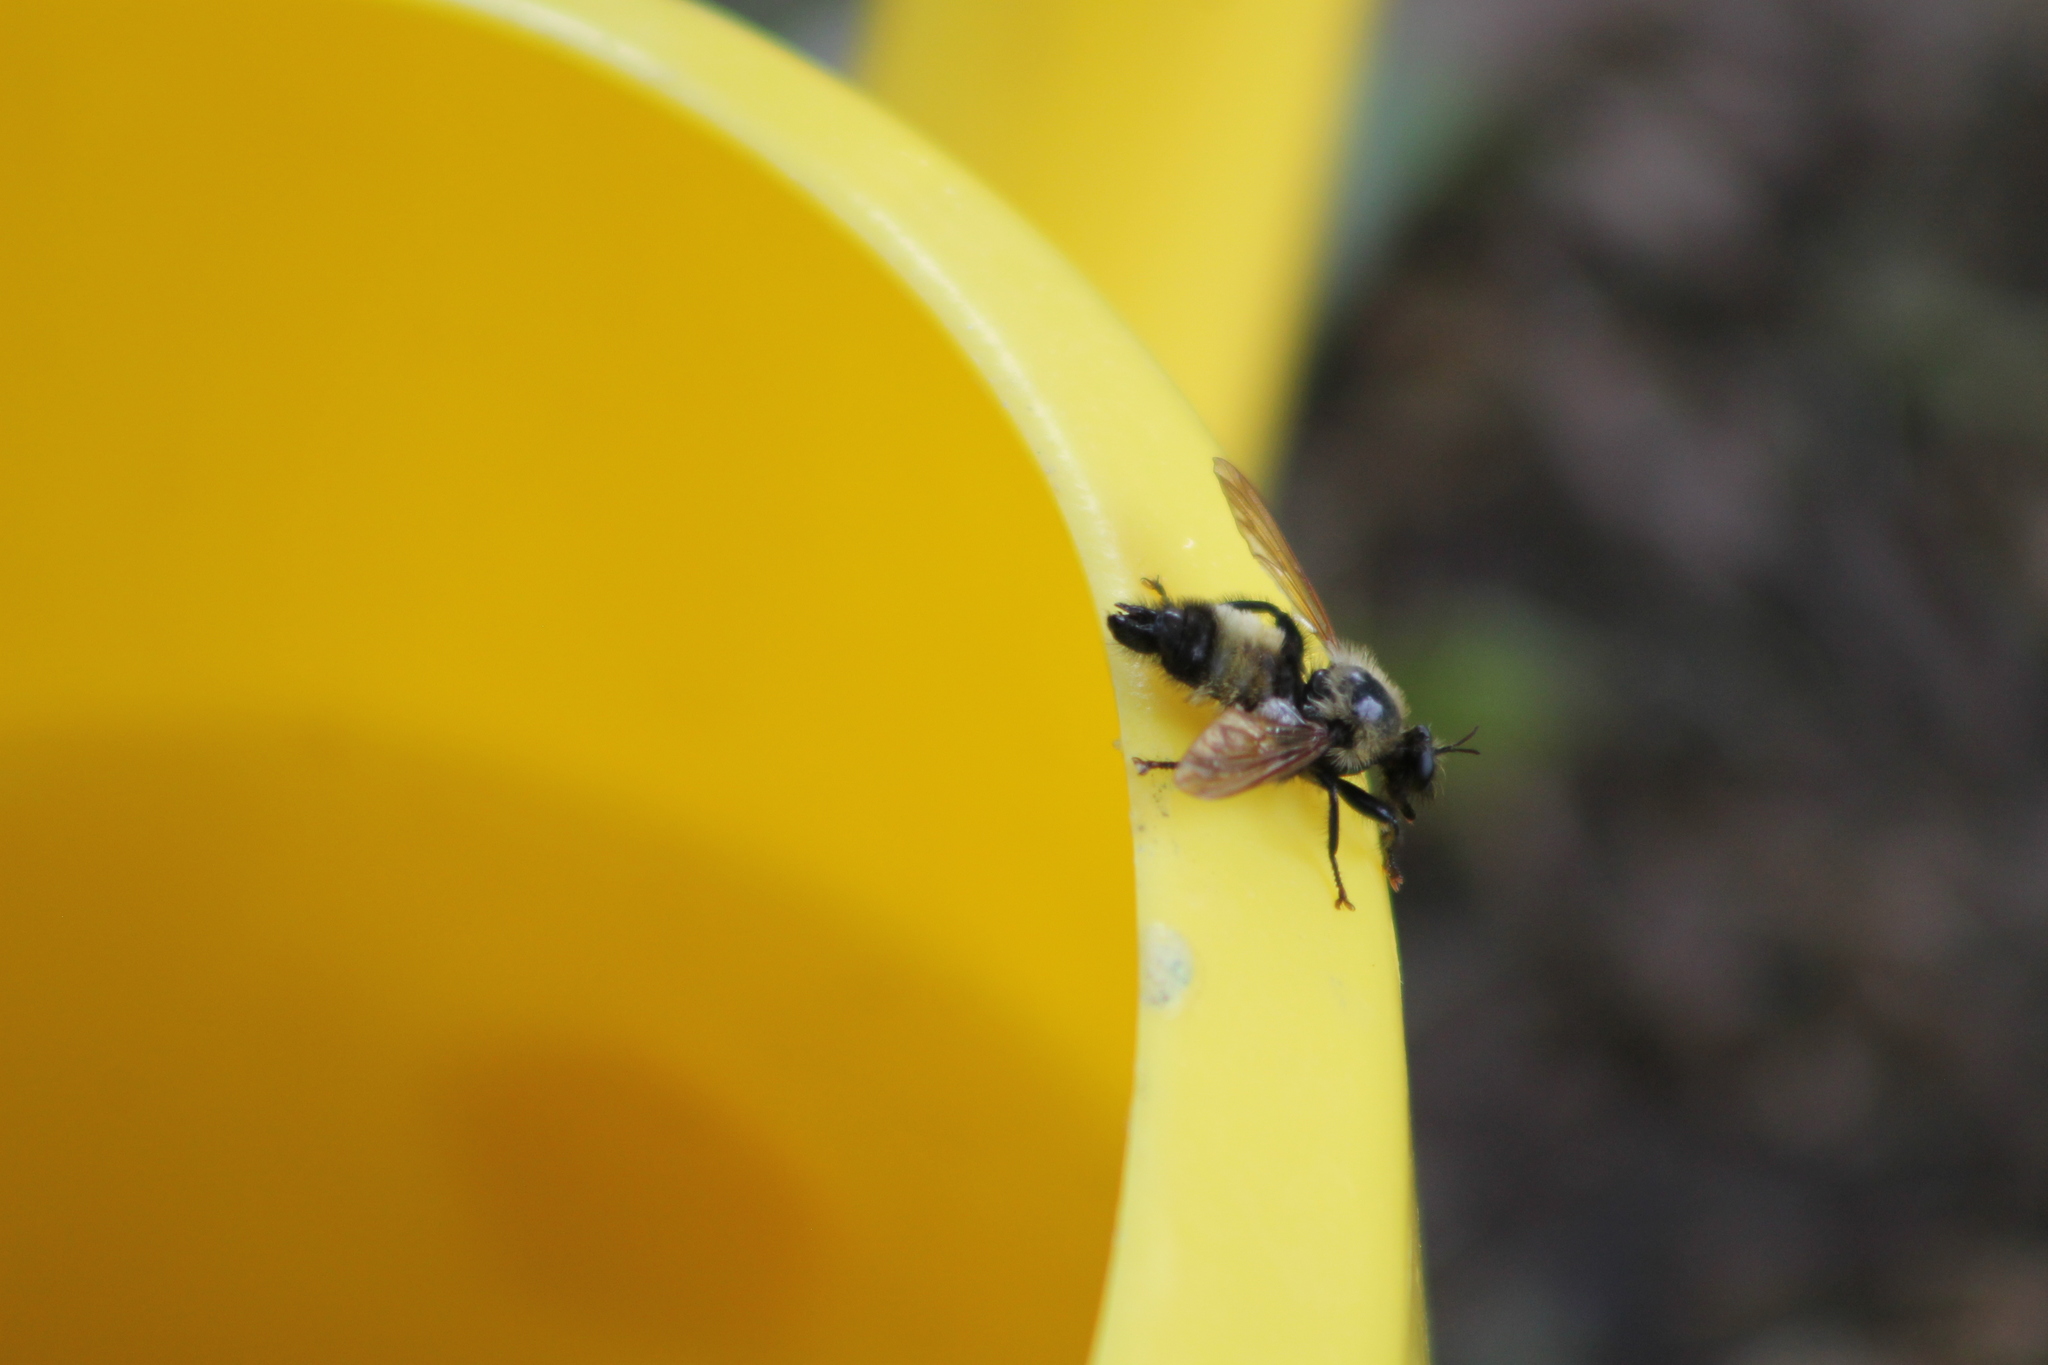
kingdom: Animalia
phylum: Arthropoda
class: Insecta
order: Diptera
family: Asilidae
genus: Laphria
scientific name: Laphria thoracica
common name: Bumble bee mimic robber fly
